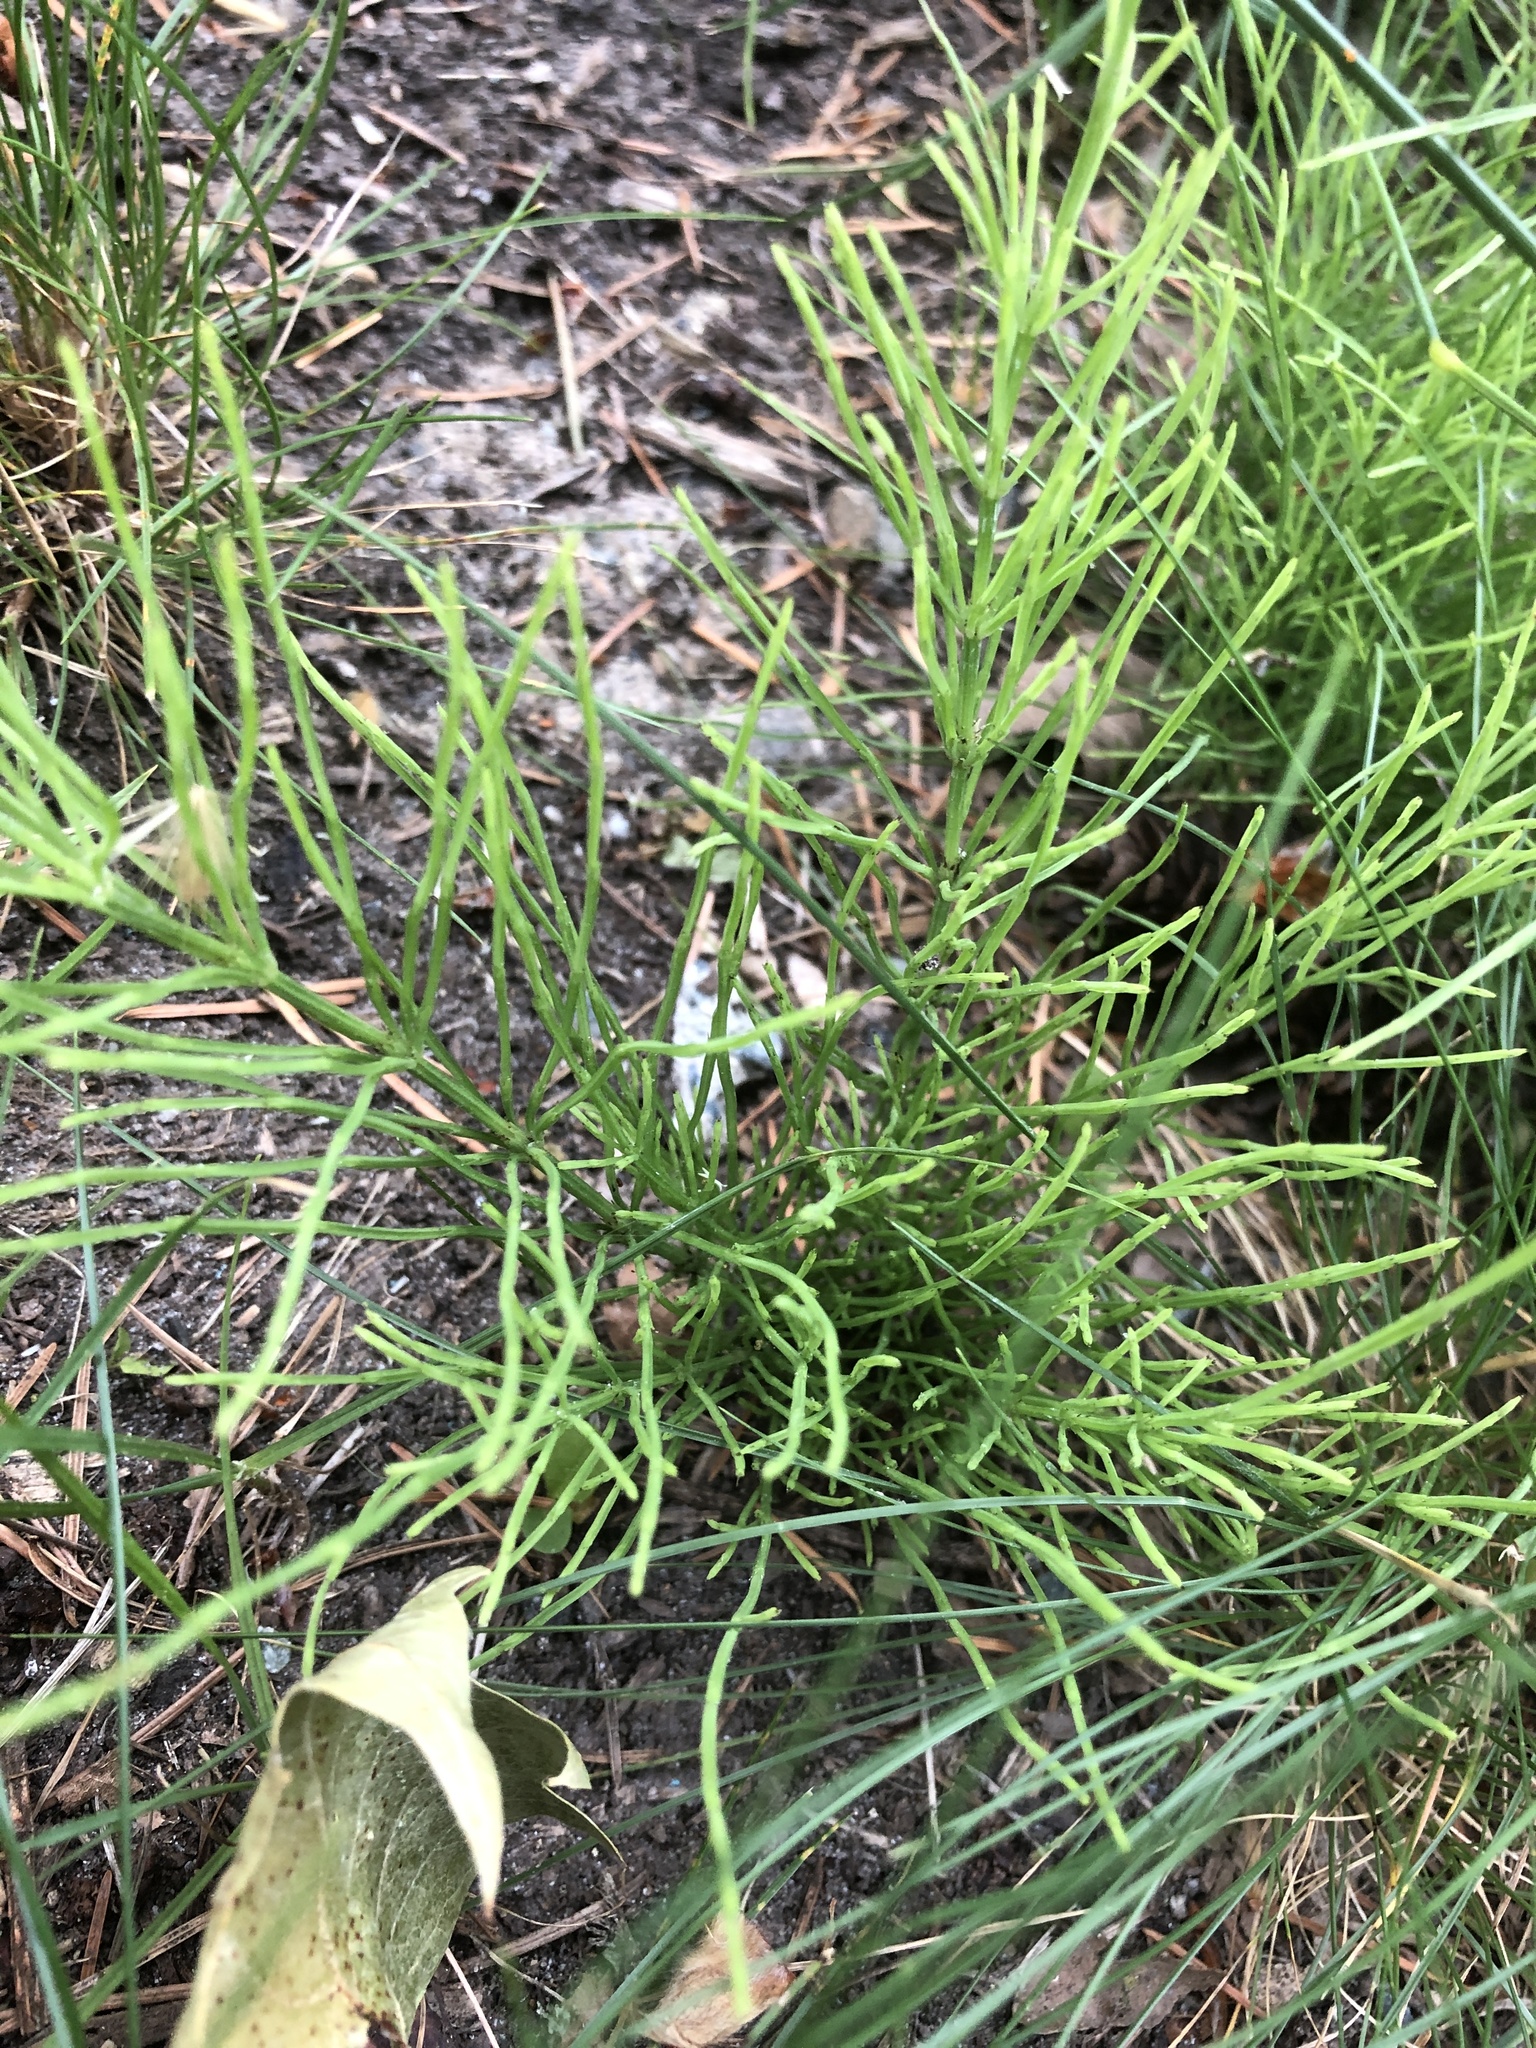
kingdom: Plantae
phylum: Tracheophyta
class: Polypodiopsida
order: Equisetales
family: Equisetaceae
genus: Equisetum
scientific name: Equisetum arvense
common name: Field horsetail
